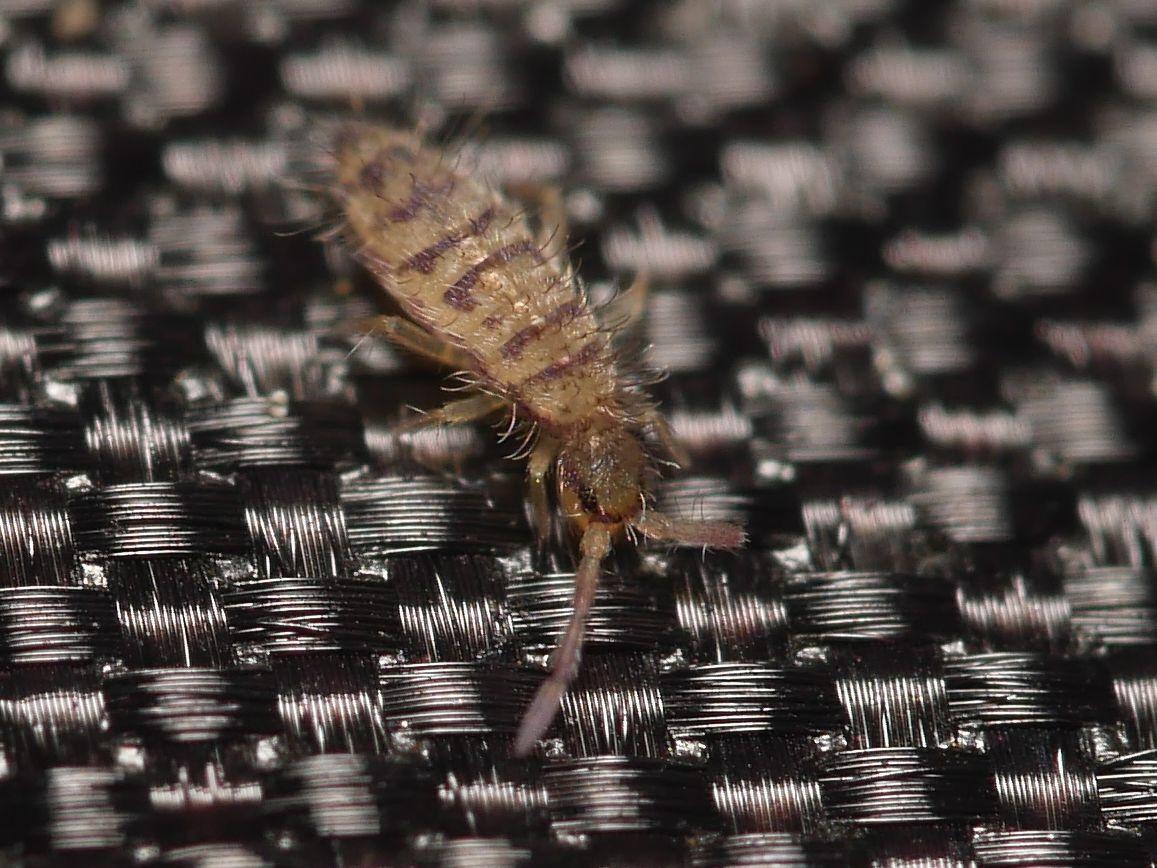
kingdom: Animalia
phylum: Arthropoda
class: Collembola
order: Entomobryomorpha
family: Entomobryidae
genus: Entomobrya
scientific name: Entomobrya multifasciata
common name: Springtail
